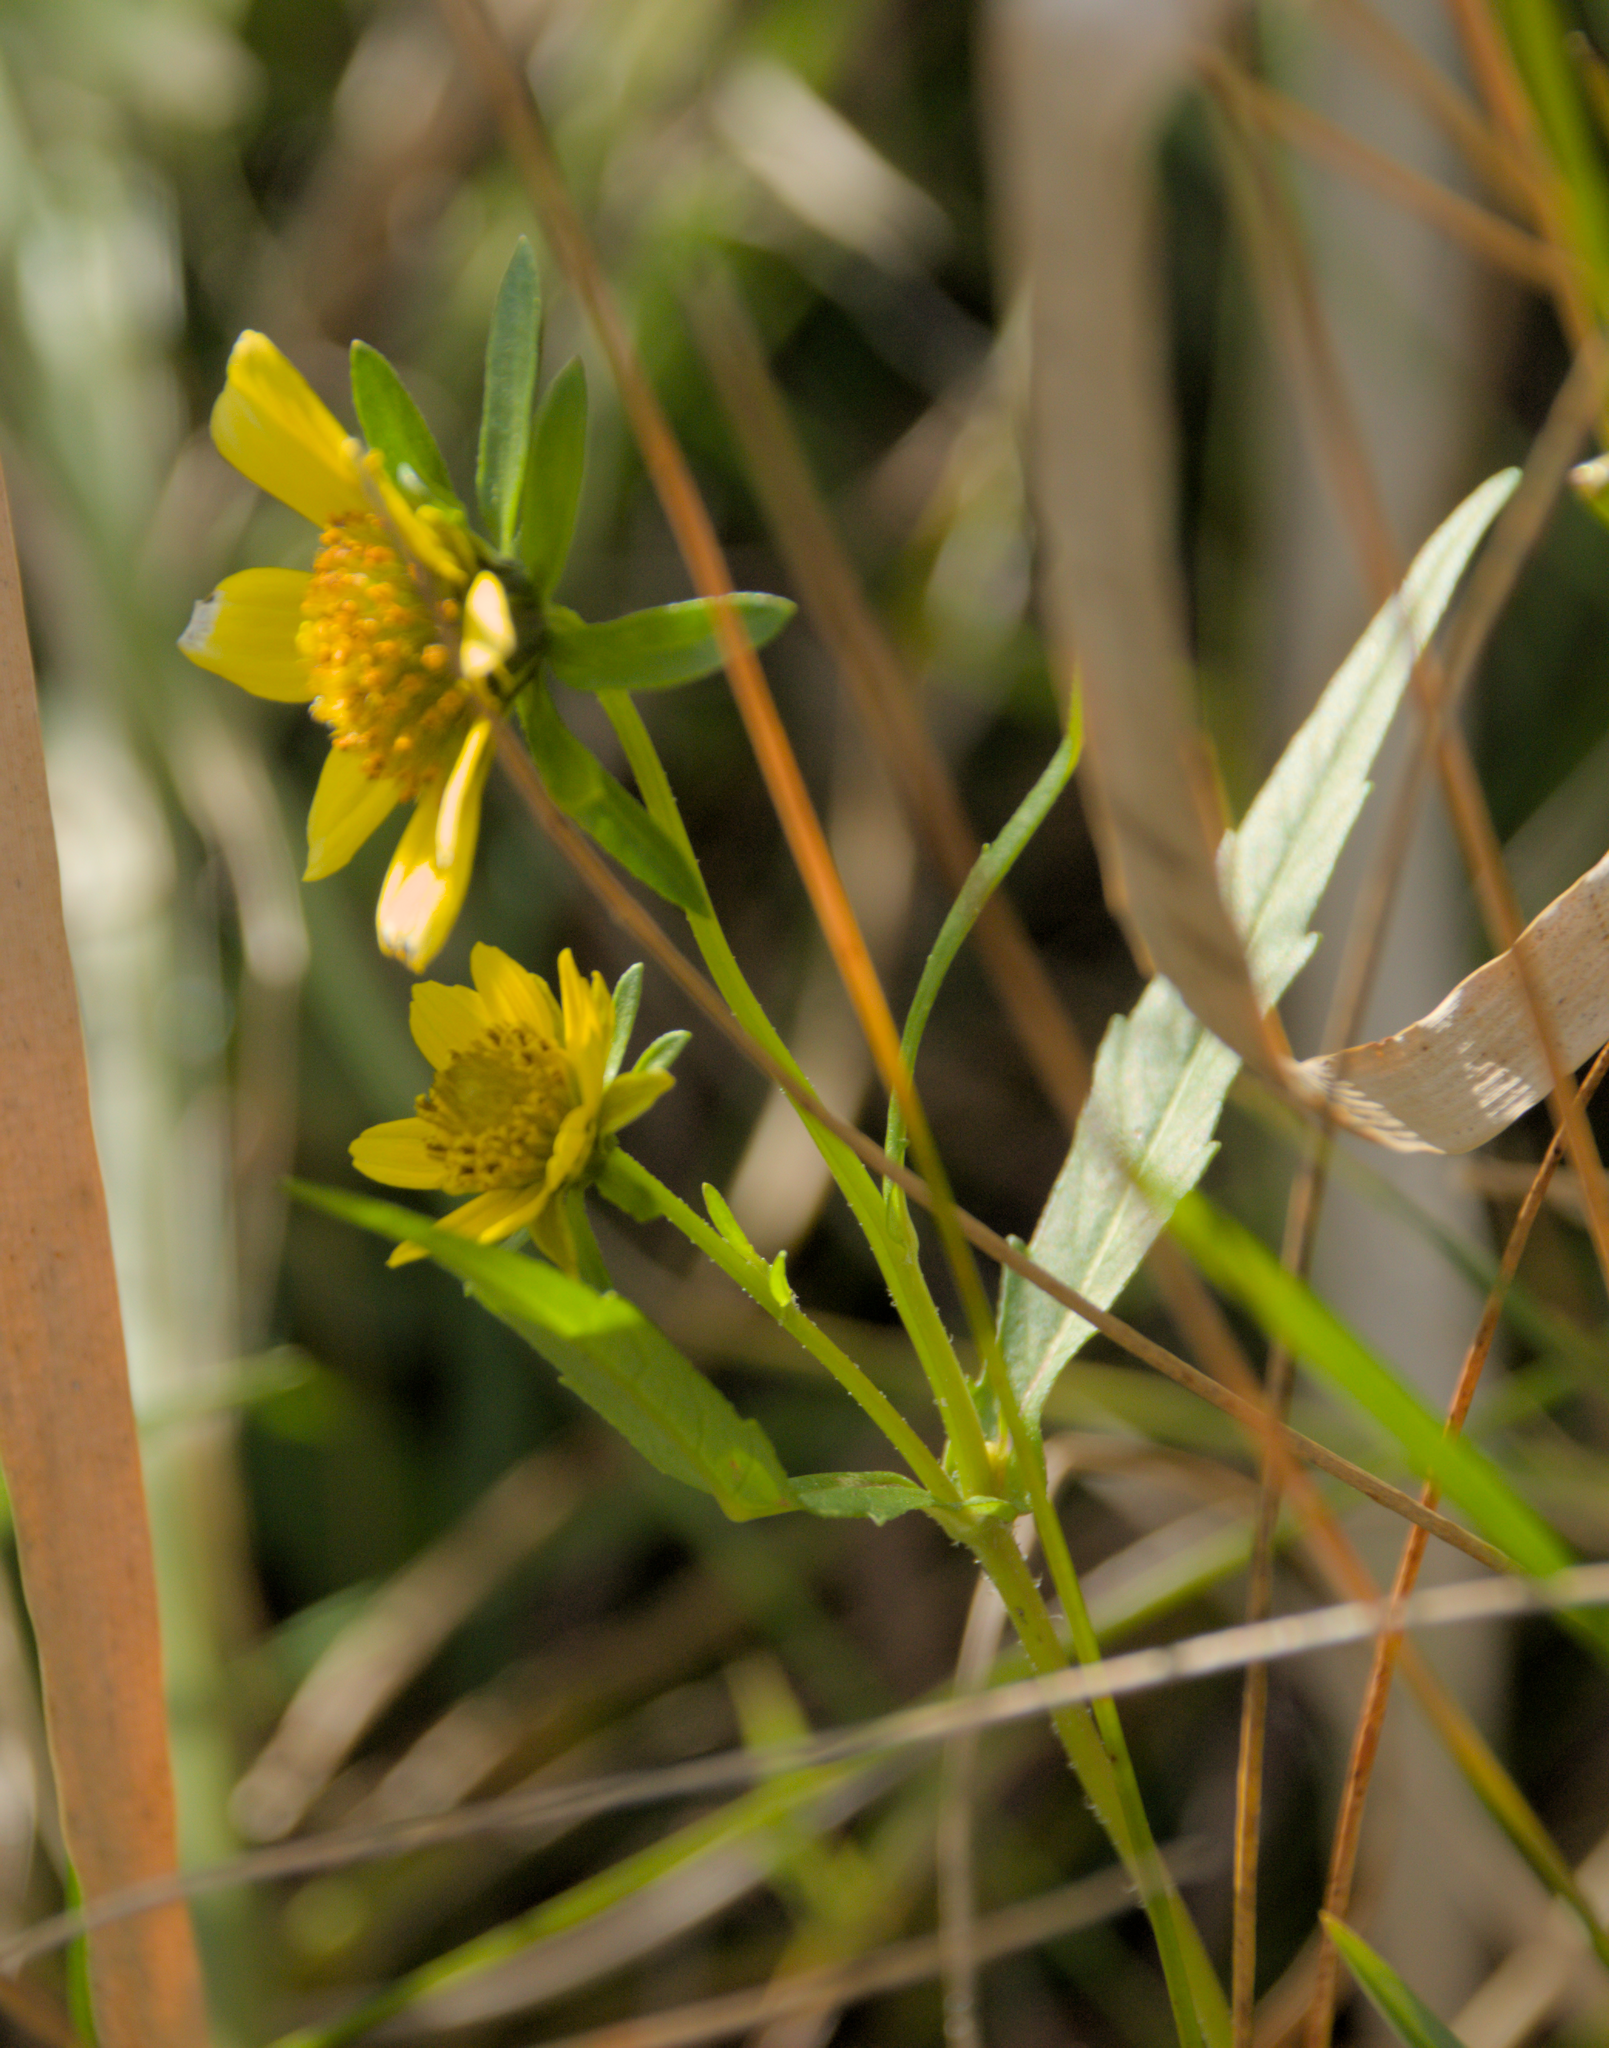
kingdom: Plantae
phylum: Tracheophyta
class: Magnoliopsida
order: Asterales
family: Asteraceae
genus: Bidens
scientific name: Bidens cernua
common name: Nodding bur-marigold
